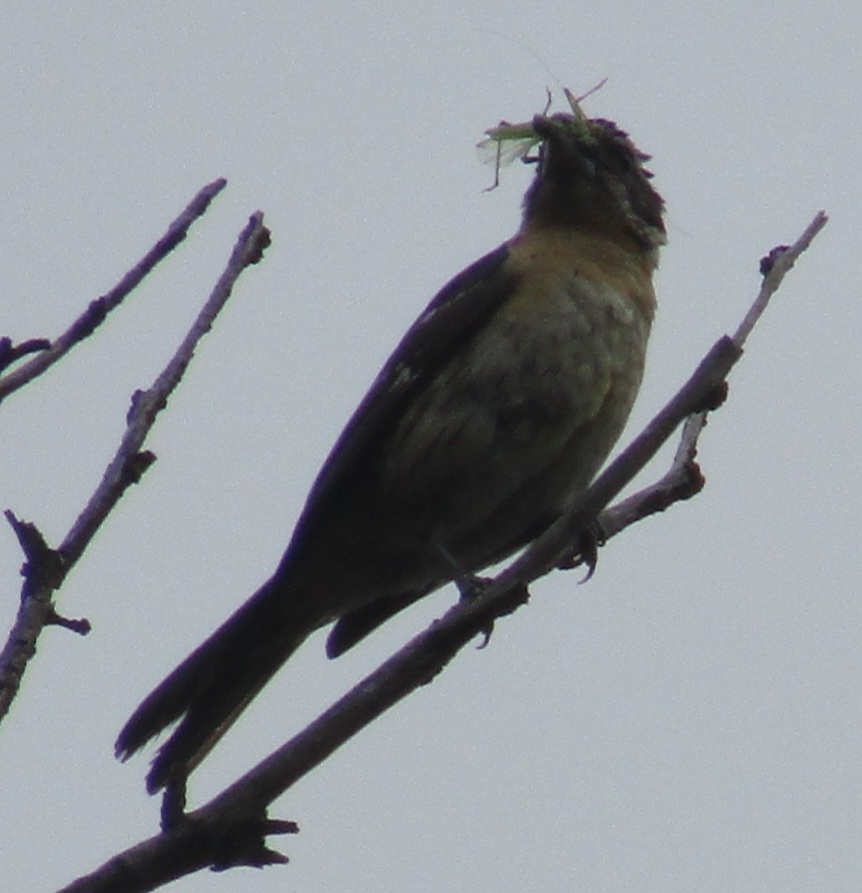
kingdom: Animalia
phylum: Chordata
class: Aves
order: Passeriformes
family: Cardinalidae
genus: Pheucticus
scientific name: Pheucticus melanocephalus
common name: Black-headed grosbeak
